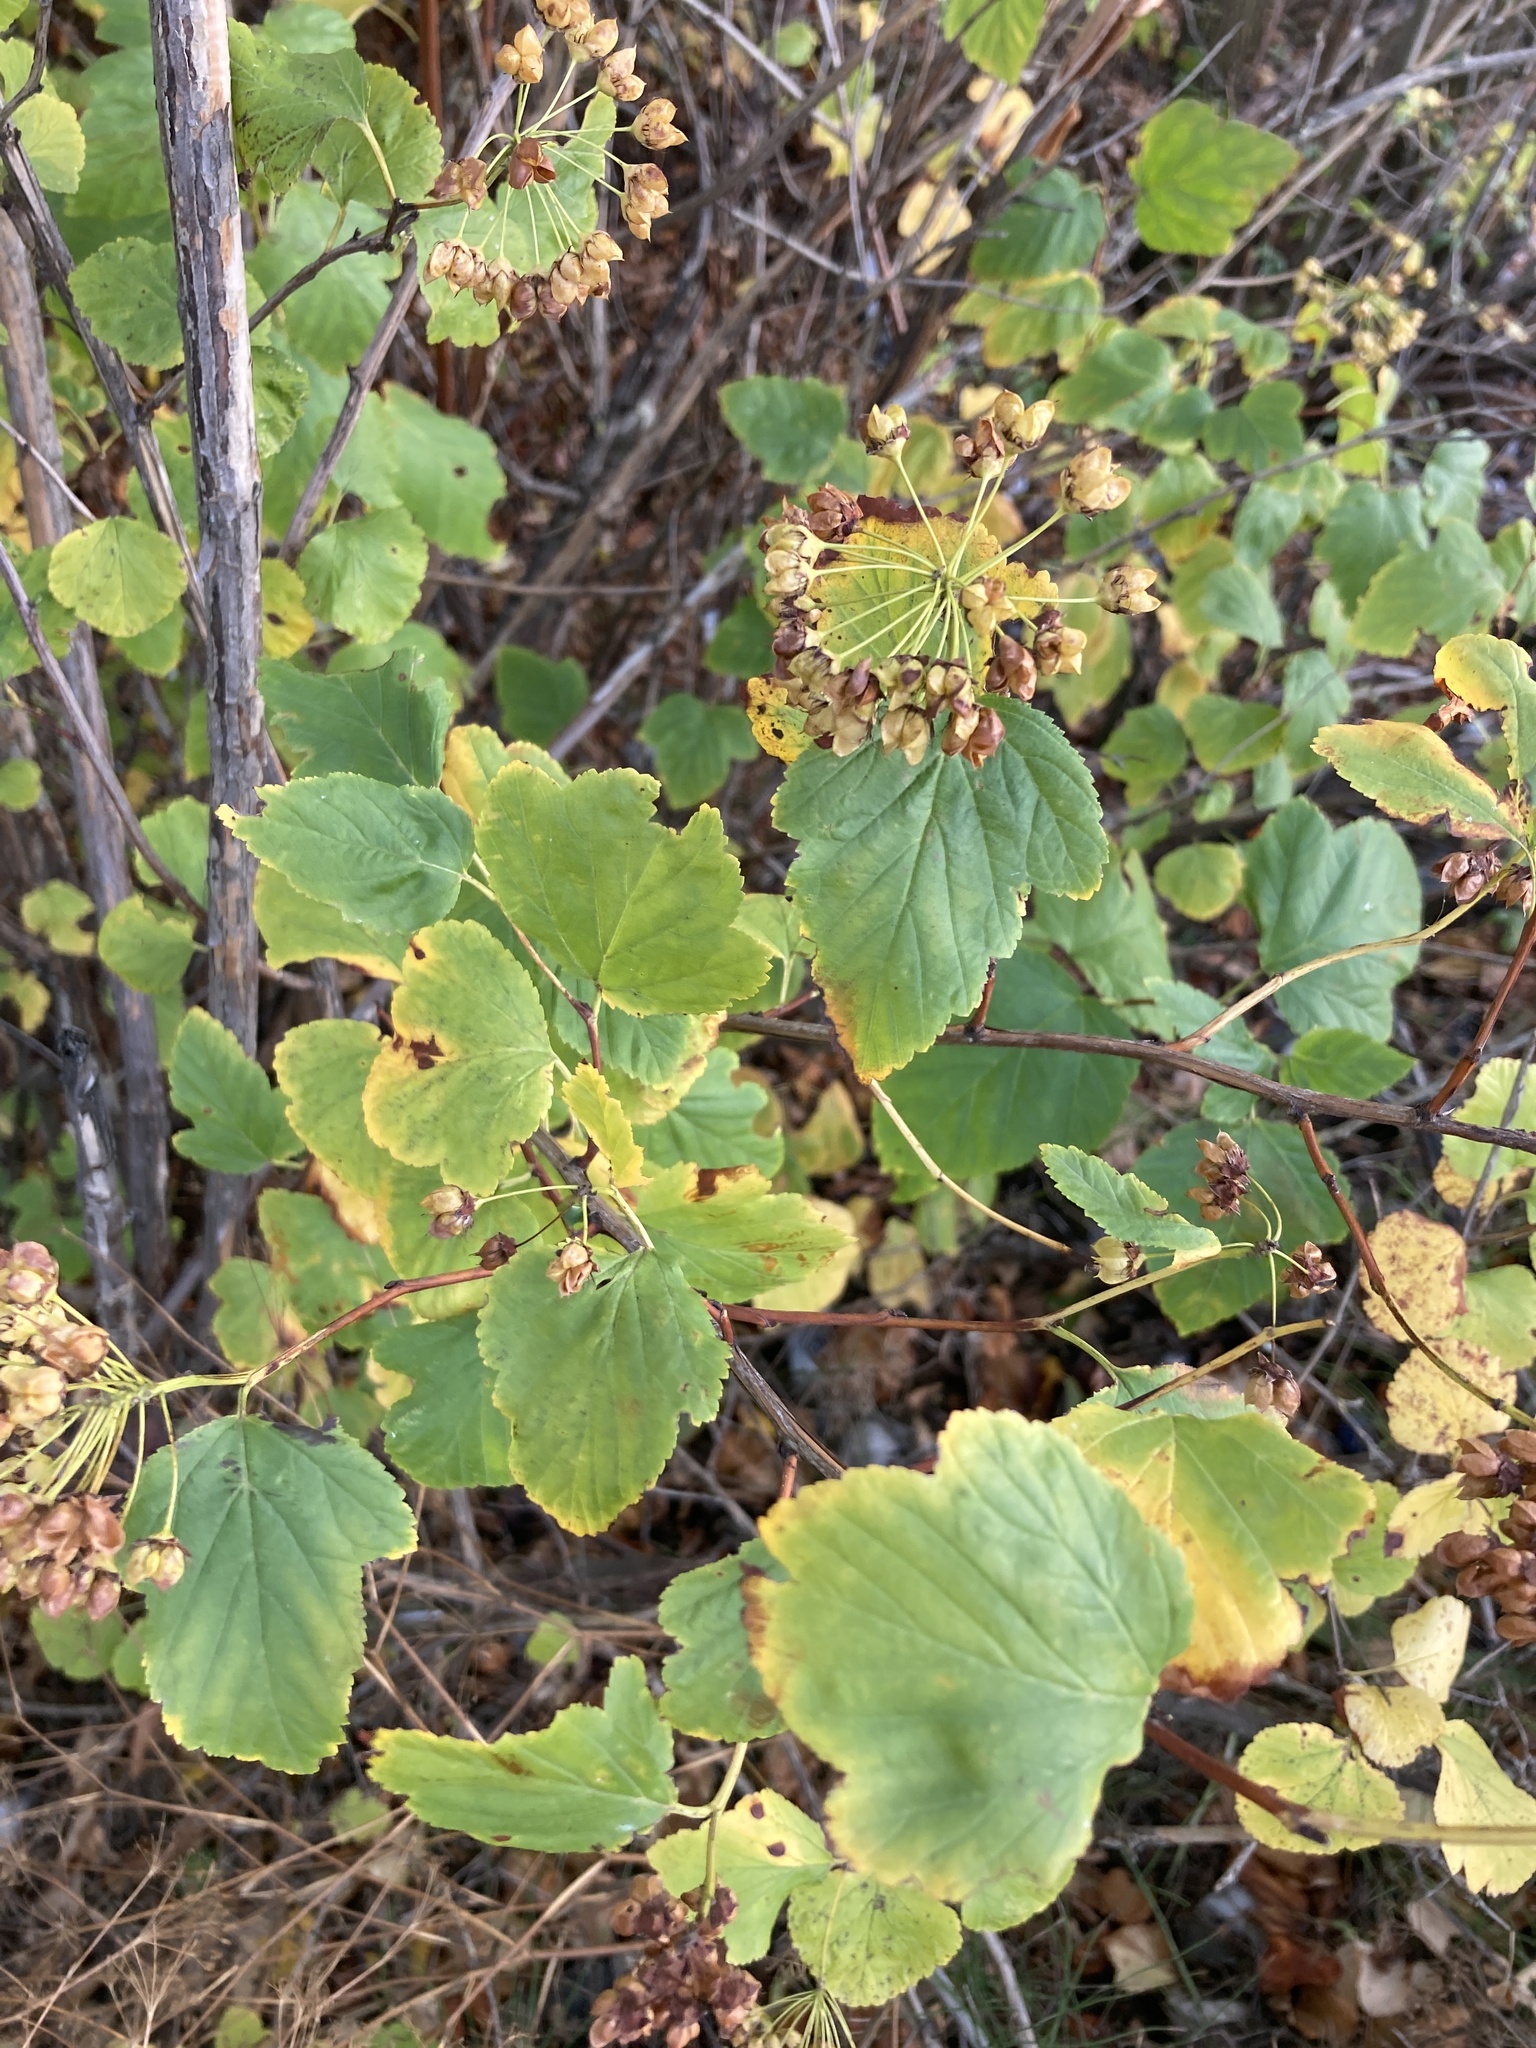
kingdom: Plantae
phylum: Tracheophyta
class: Magnoliopsida
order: Rosales
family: Rosaceae
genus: Physocarpus
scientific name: Physocarpus opulifolius
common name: Ninebark
